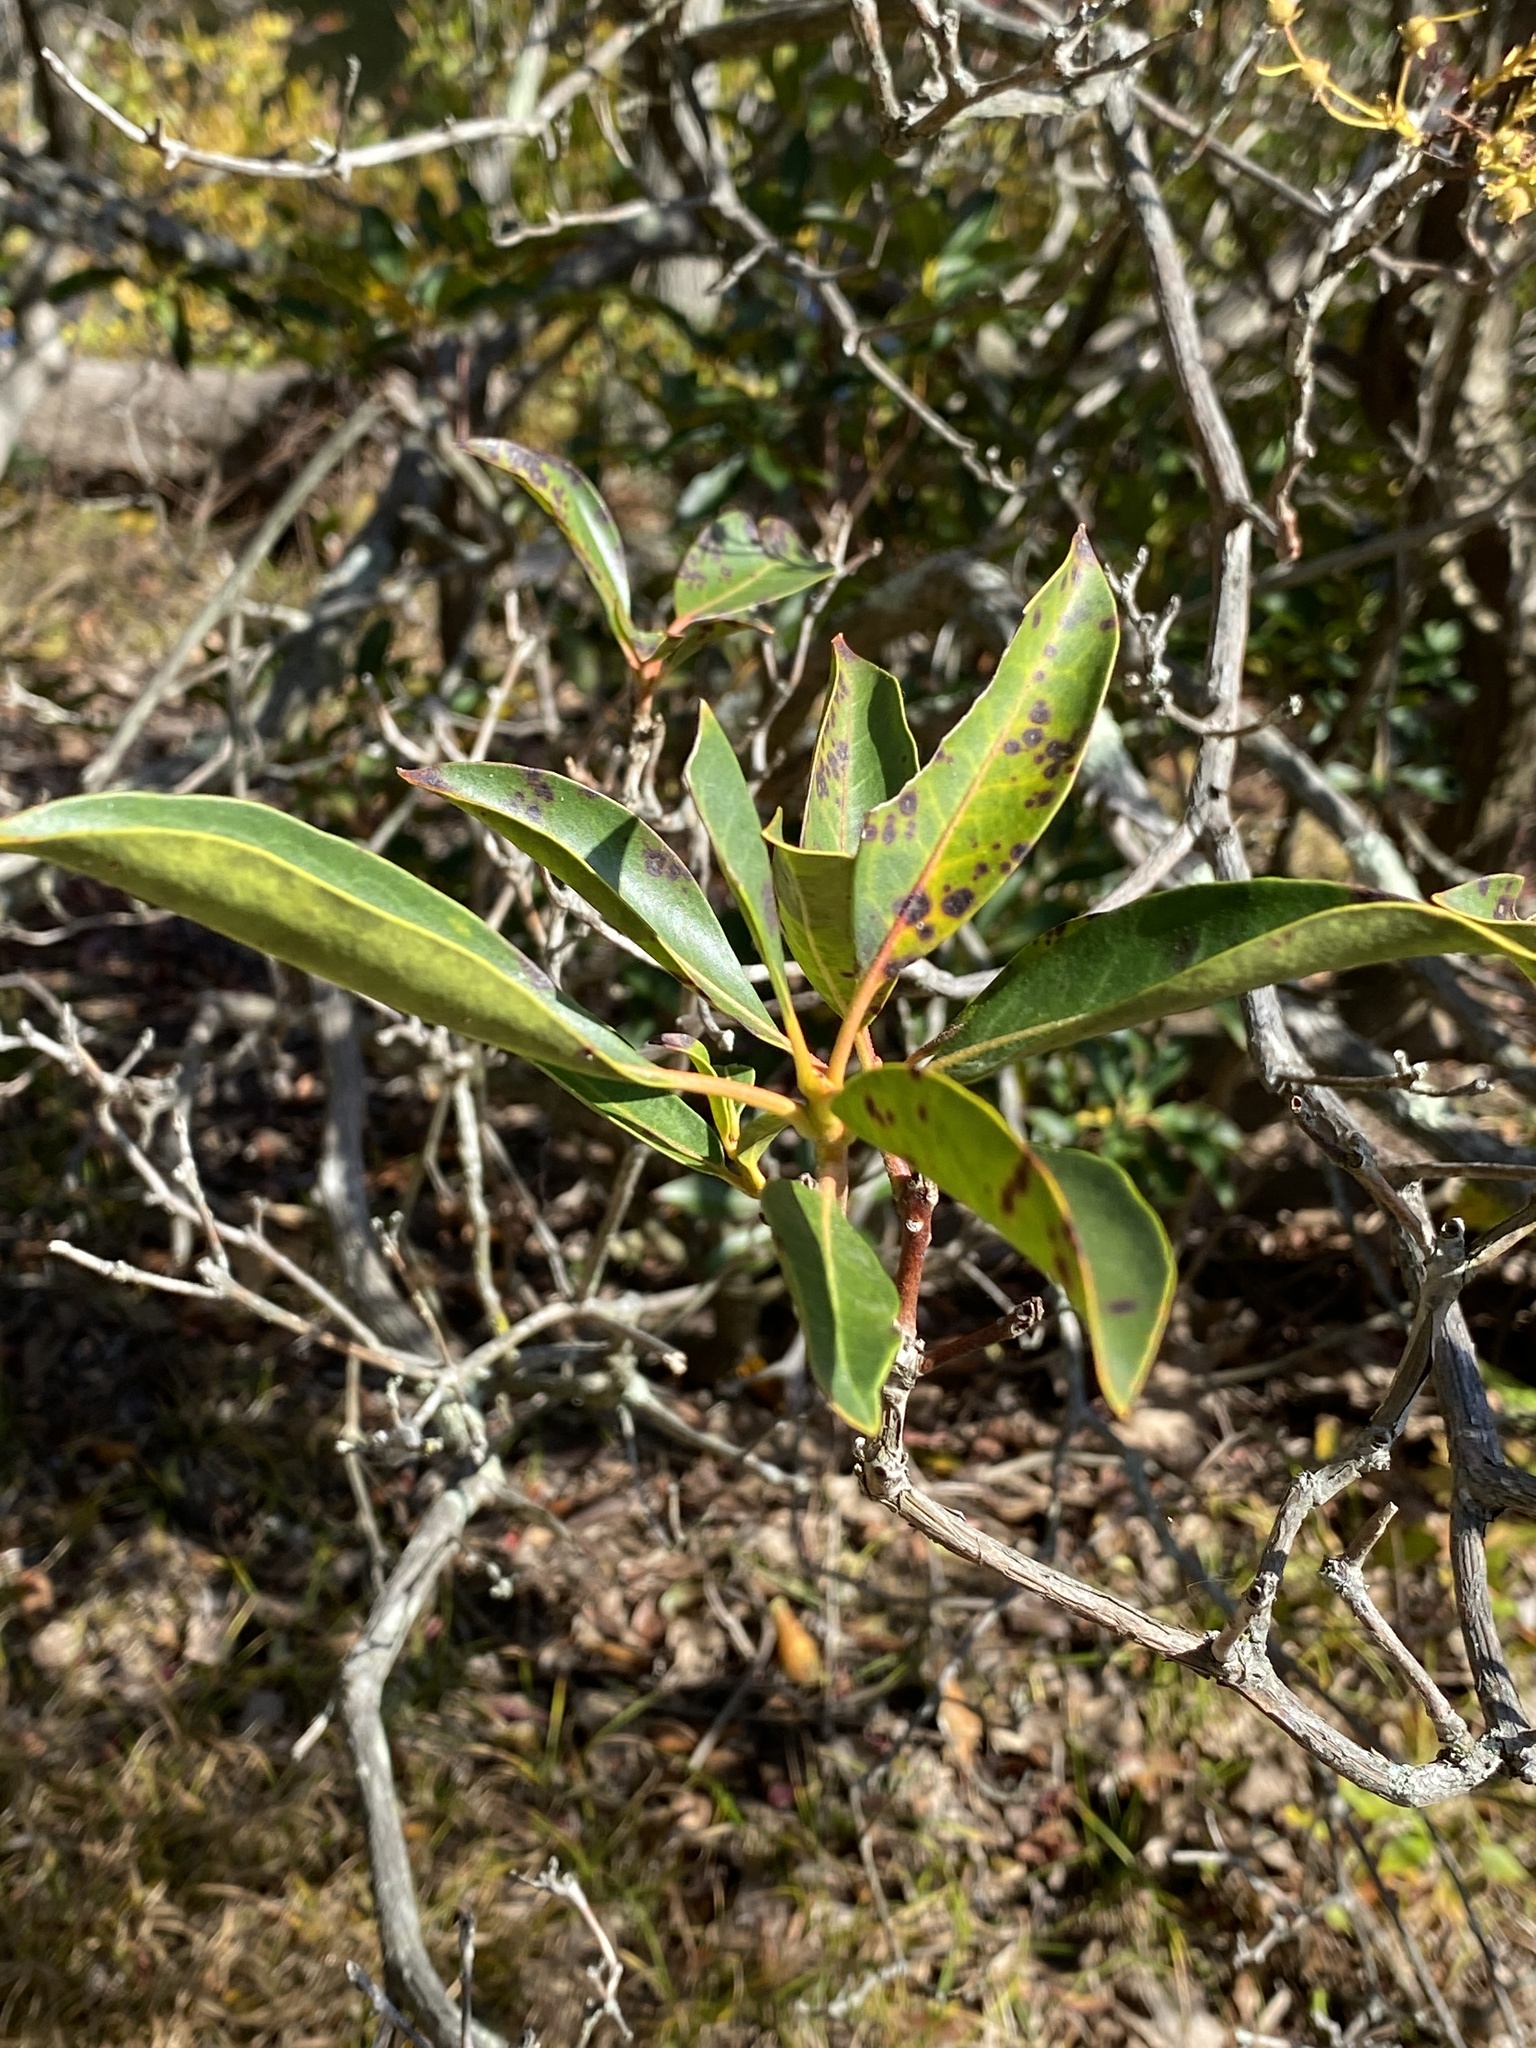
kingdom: Plantae
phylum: Tracheophyta
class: Magnoliopsida
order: Ericales
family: Ericaceae
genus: Kalmia
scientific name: Kalmia latifolia
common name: Mountain-laurel
